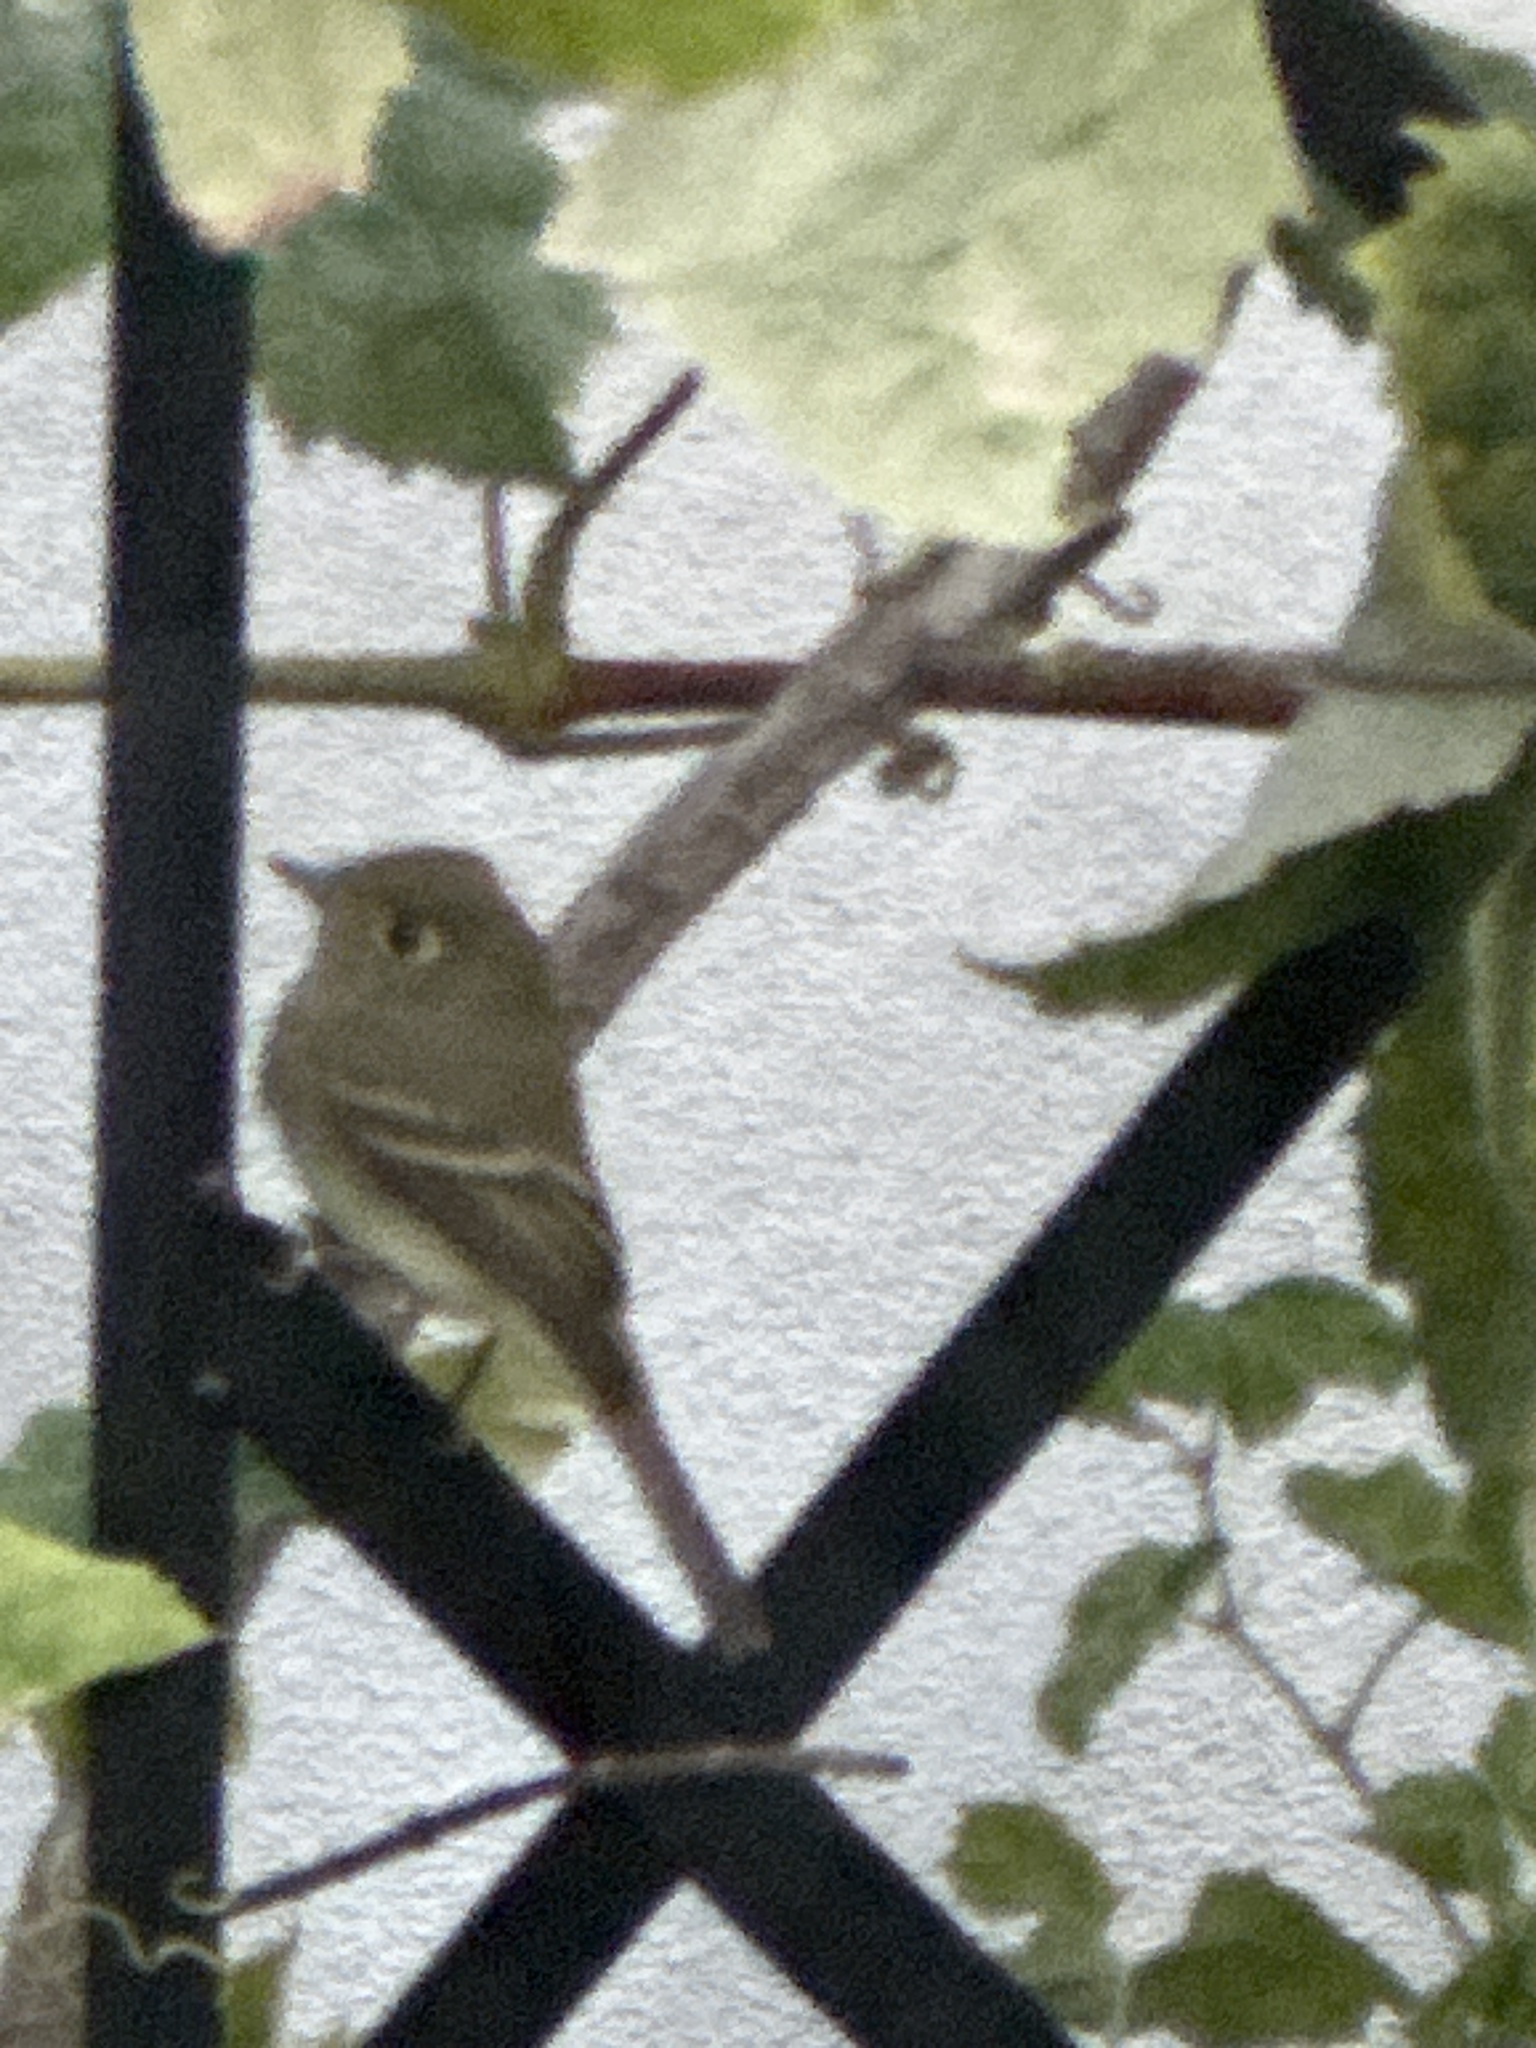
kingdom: Animalia
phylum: Chordata
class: Aves
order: Passeriformes
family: Tyrannidae
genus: Empidonax
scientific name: Empidonax difficilis
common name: Pacific-slope flycatcher
